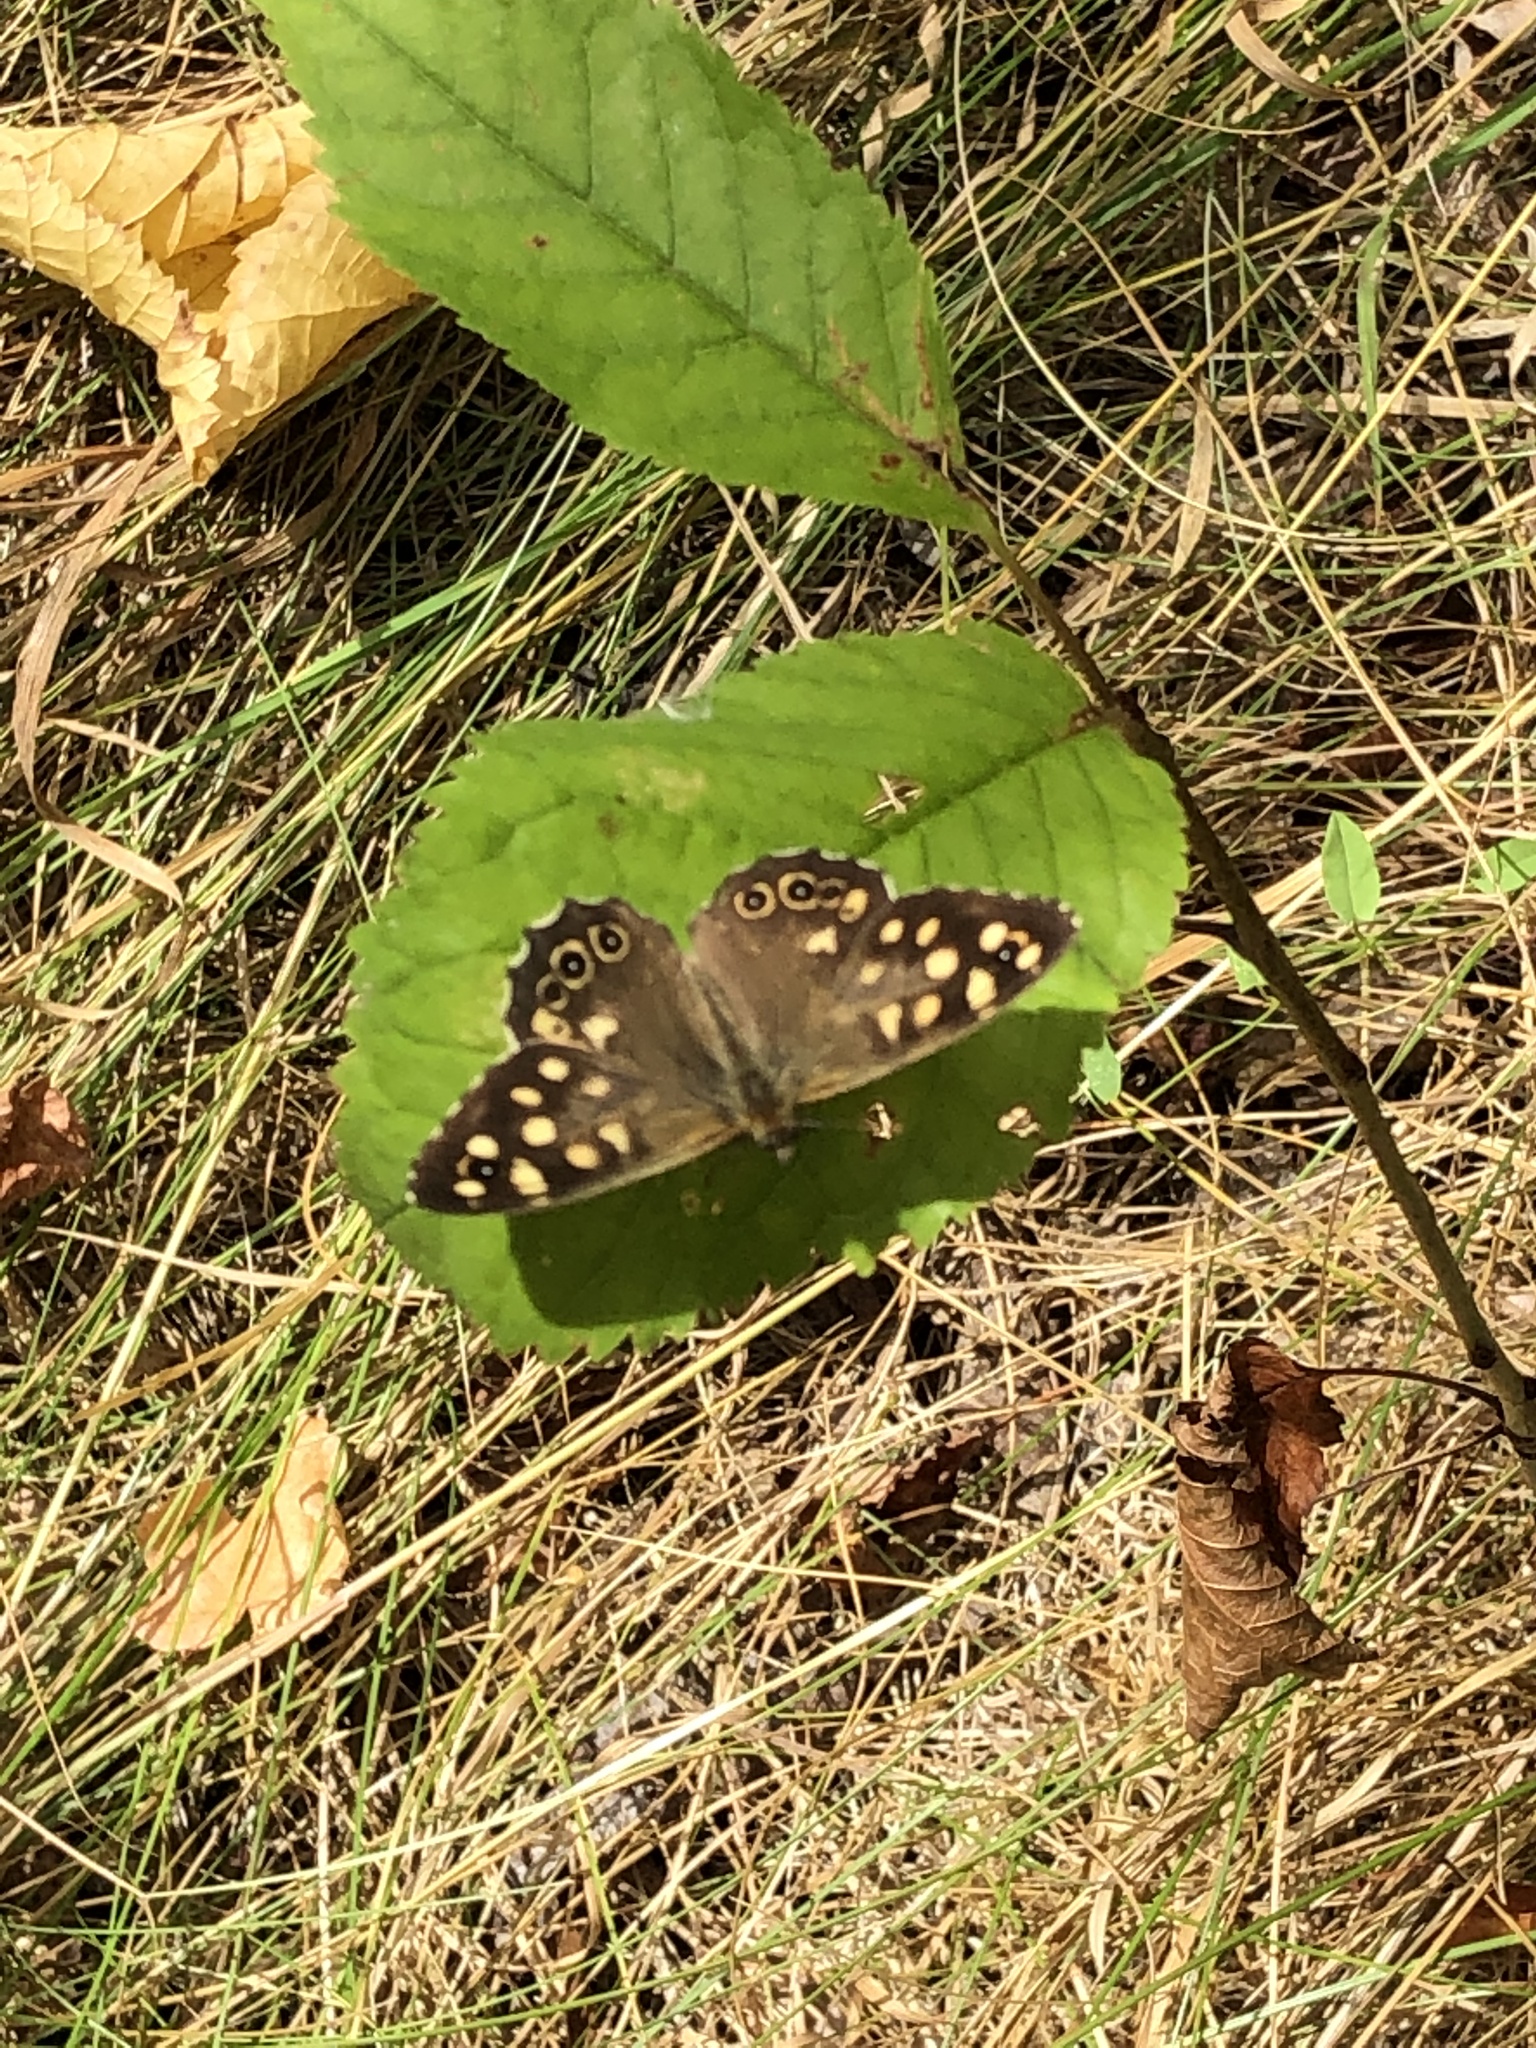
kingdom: Animalia
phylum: Arthropoda
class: Insecta
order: Lepidoptera
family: Nymphalidae
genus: Pararge
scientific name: Pararge aegeria
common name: Speckled wood
